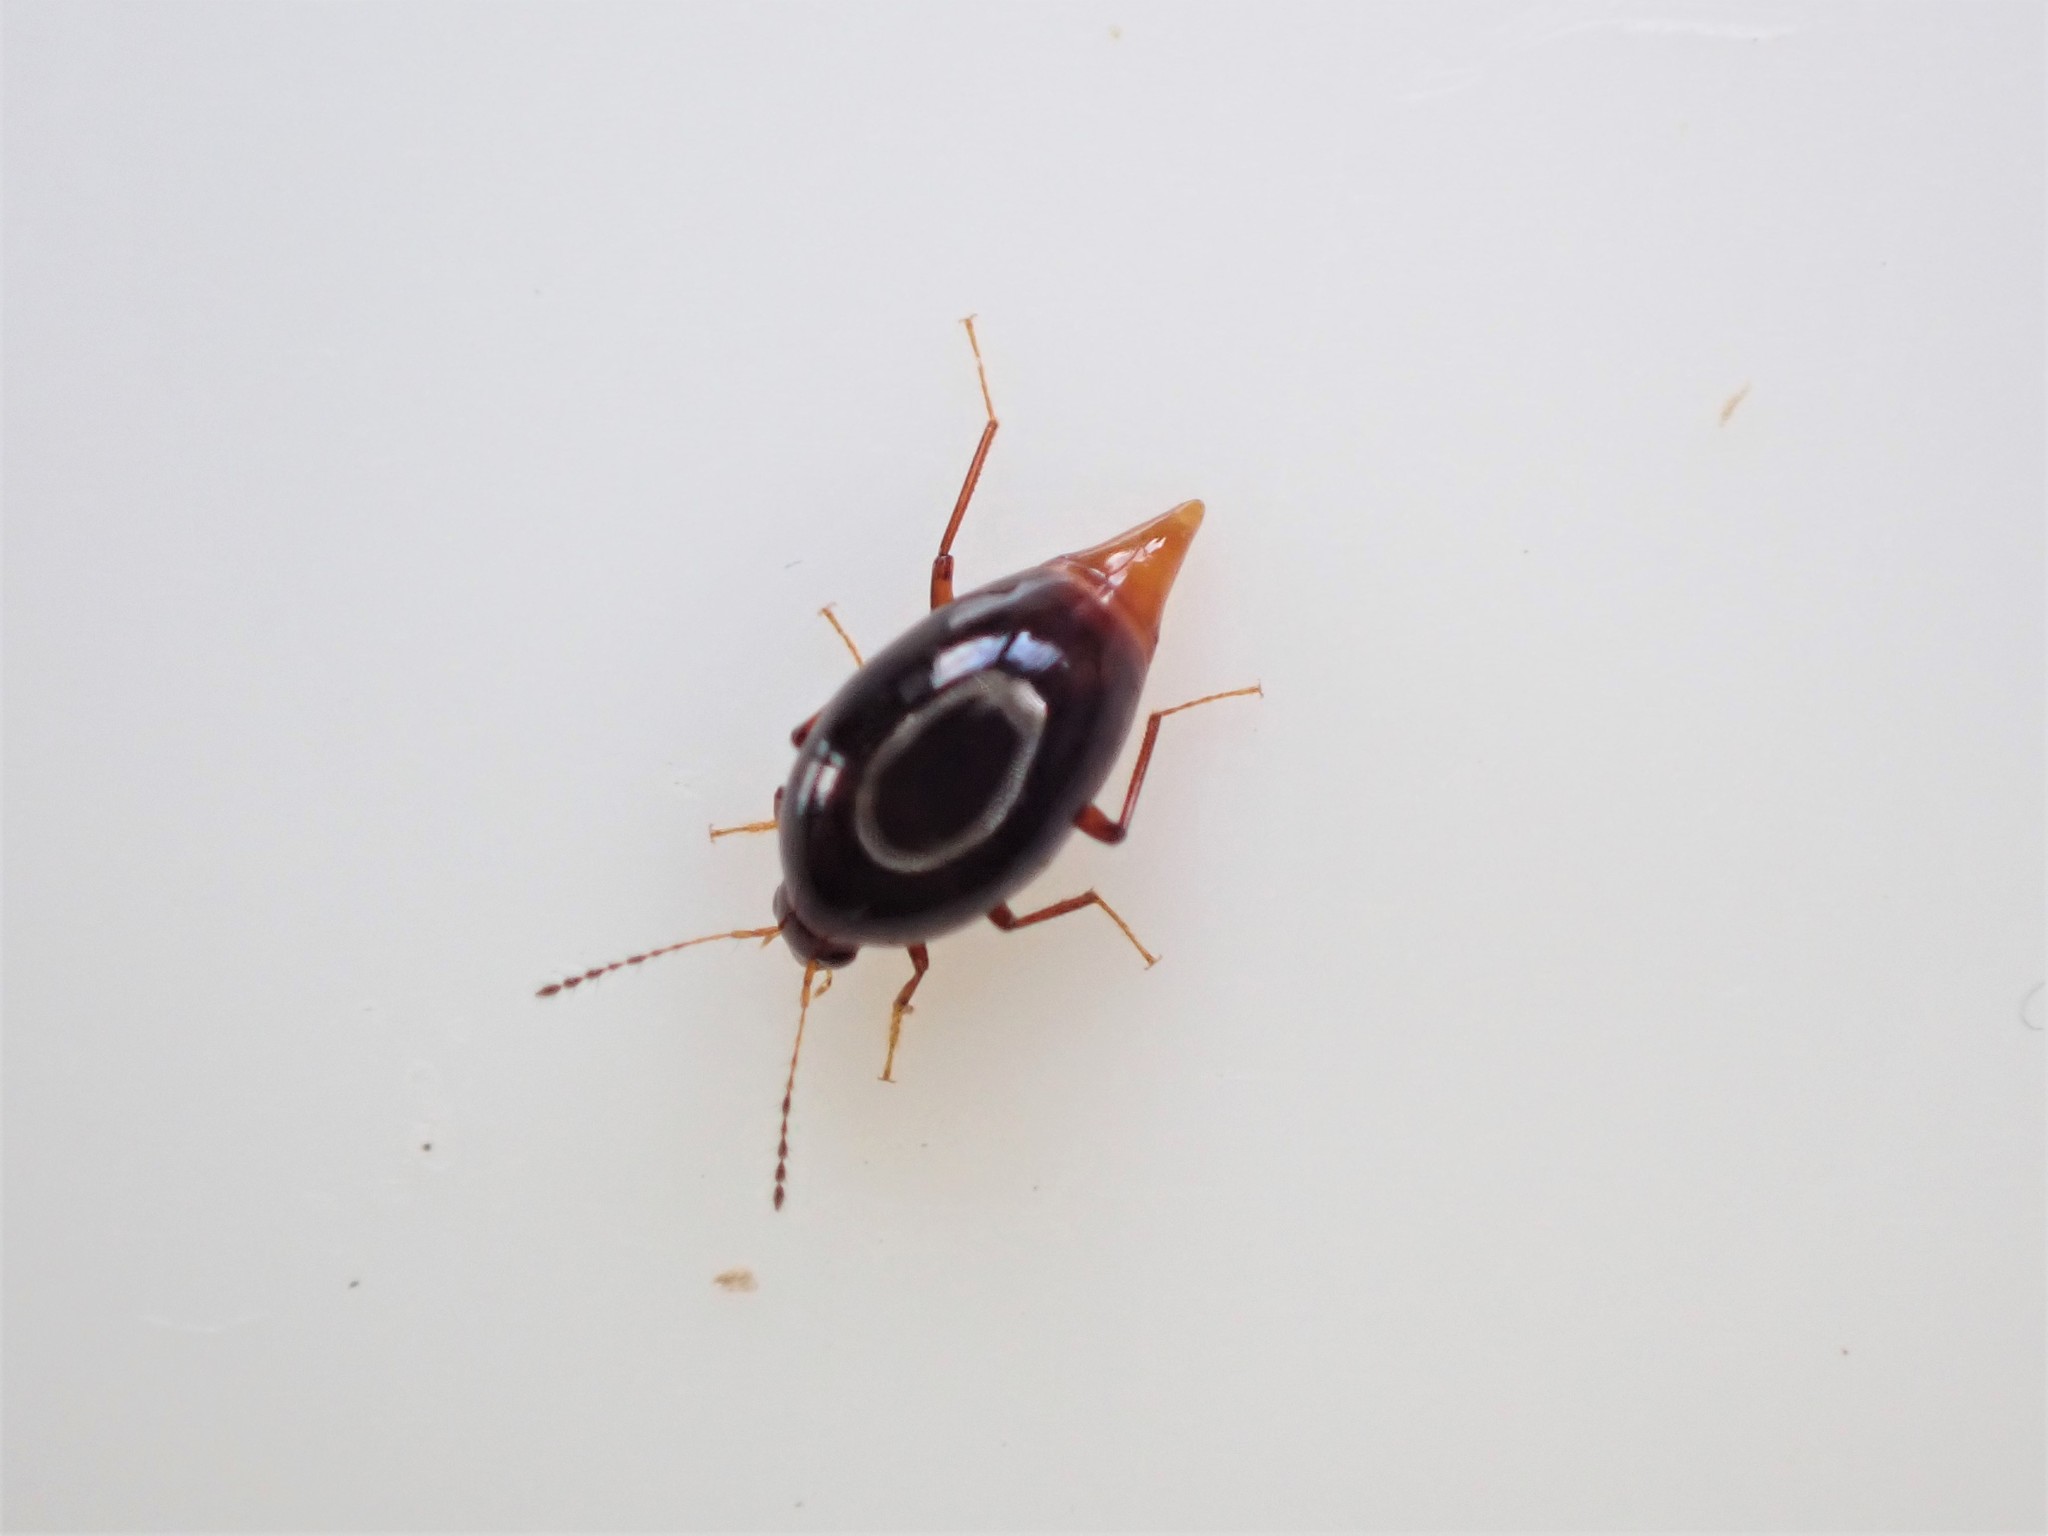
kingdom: Animalia
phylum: Arthropoda
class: Insecta
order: Coleoptera
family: Staphylinidae
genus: Brachynopus
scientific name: Brachynopus scutellaris
